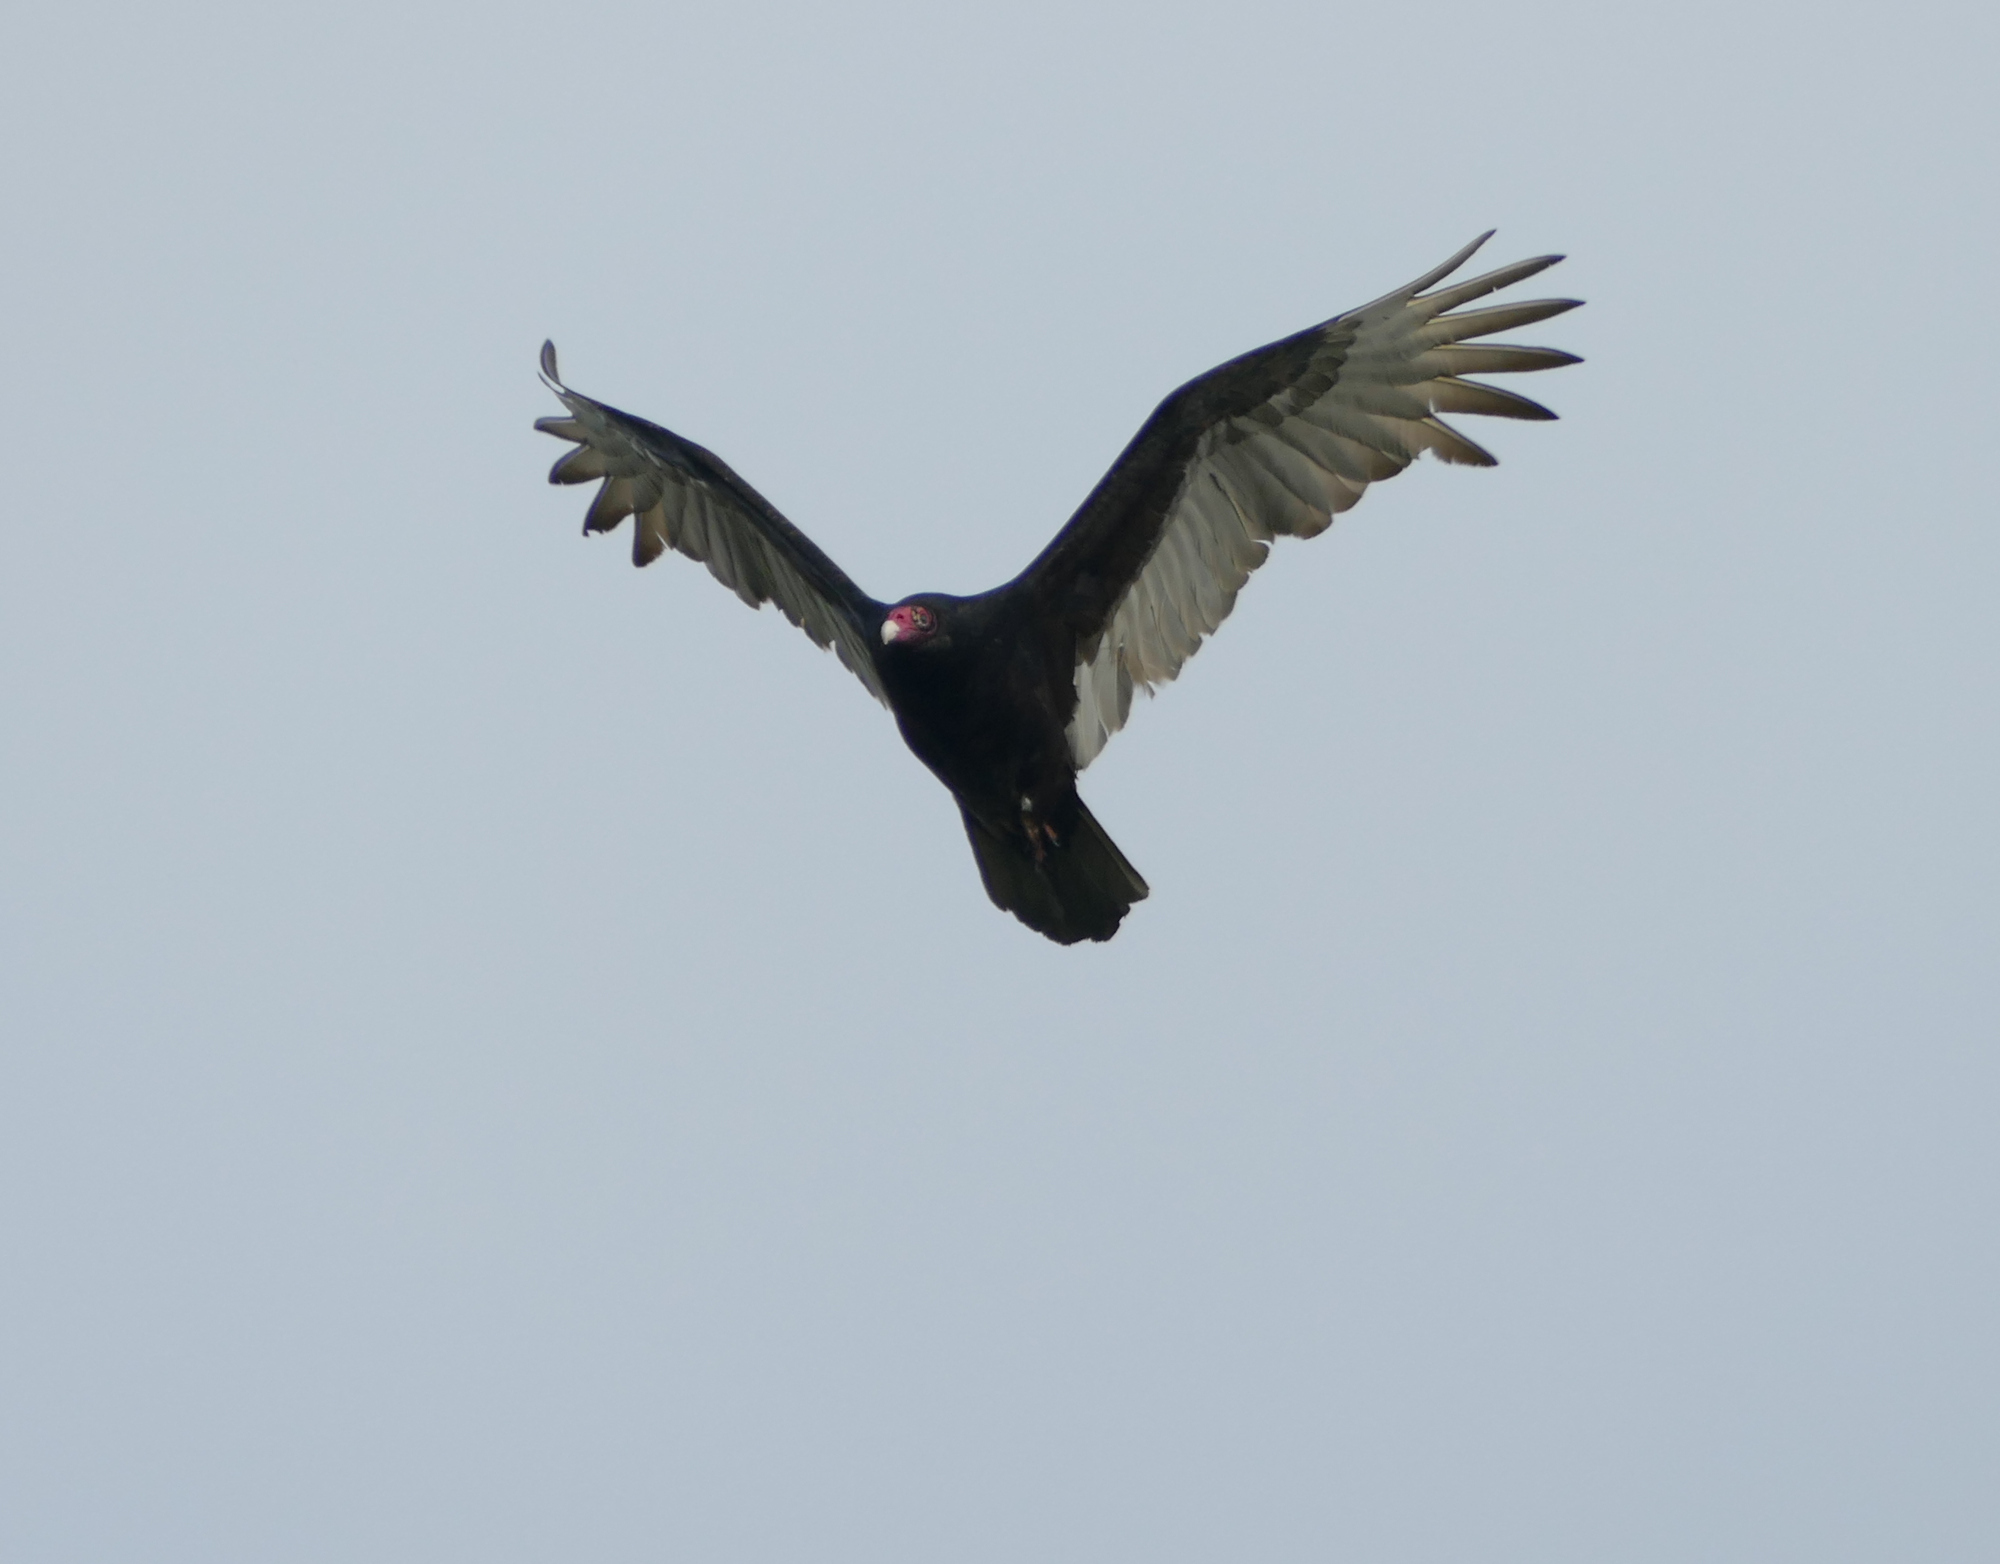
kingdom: Animalia
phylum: Chordata
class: Aves
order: Accipitriformes
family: Cathartidae
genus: Cathartes
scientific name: Cathartes aura
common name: Turkey vulture
